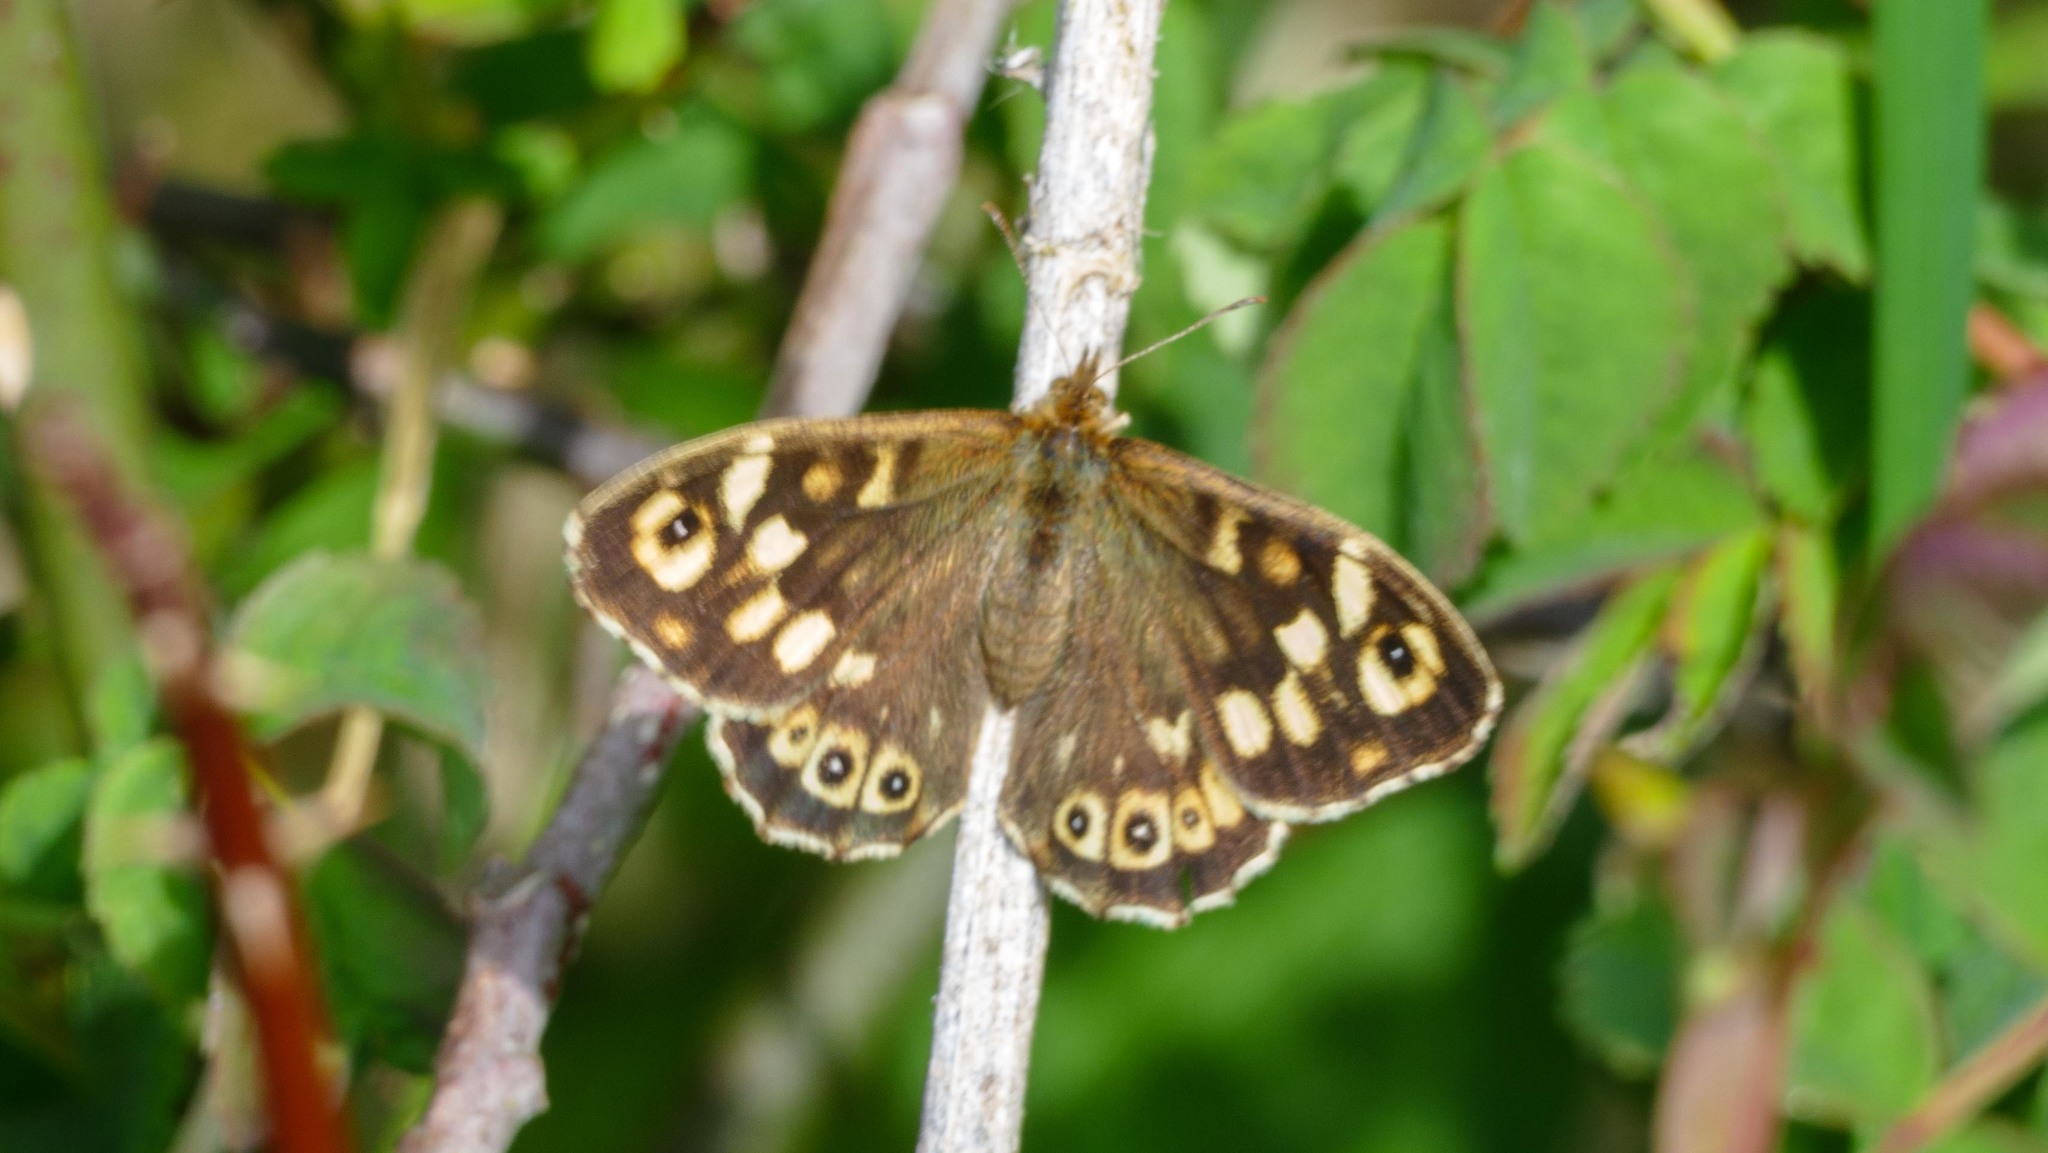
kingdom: Animalia
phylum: Arthropoda
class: Insecta
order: Lepidoptera
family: Nymphalidae
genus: Pararge
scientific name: Pararge aegeria
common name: Speckled wood
